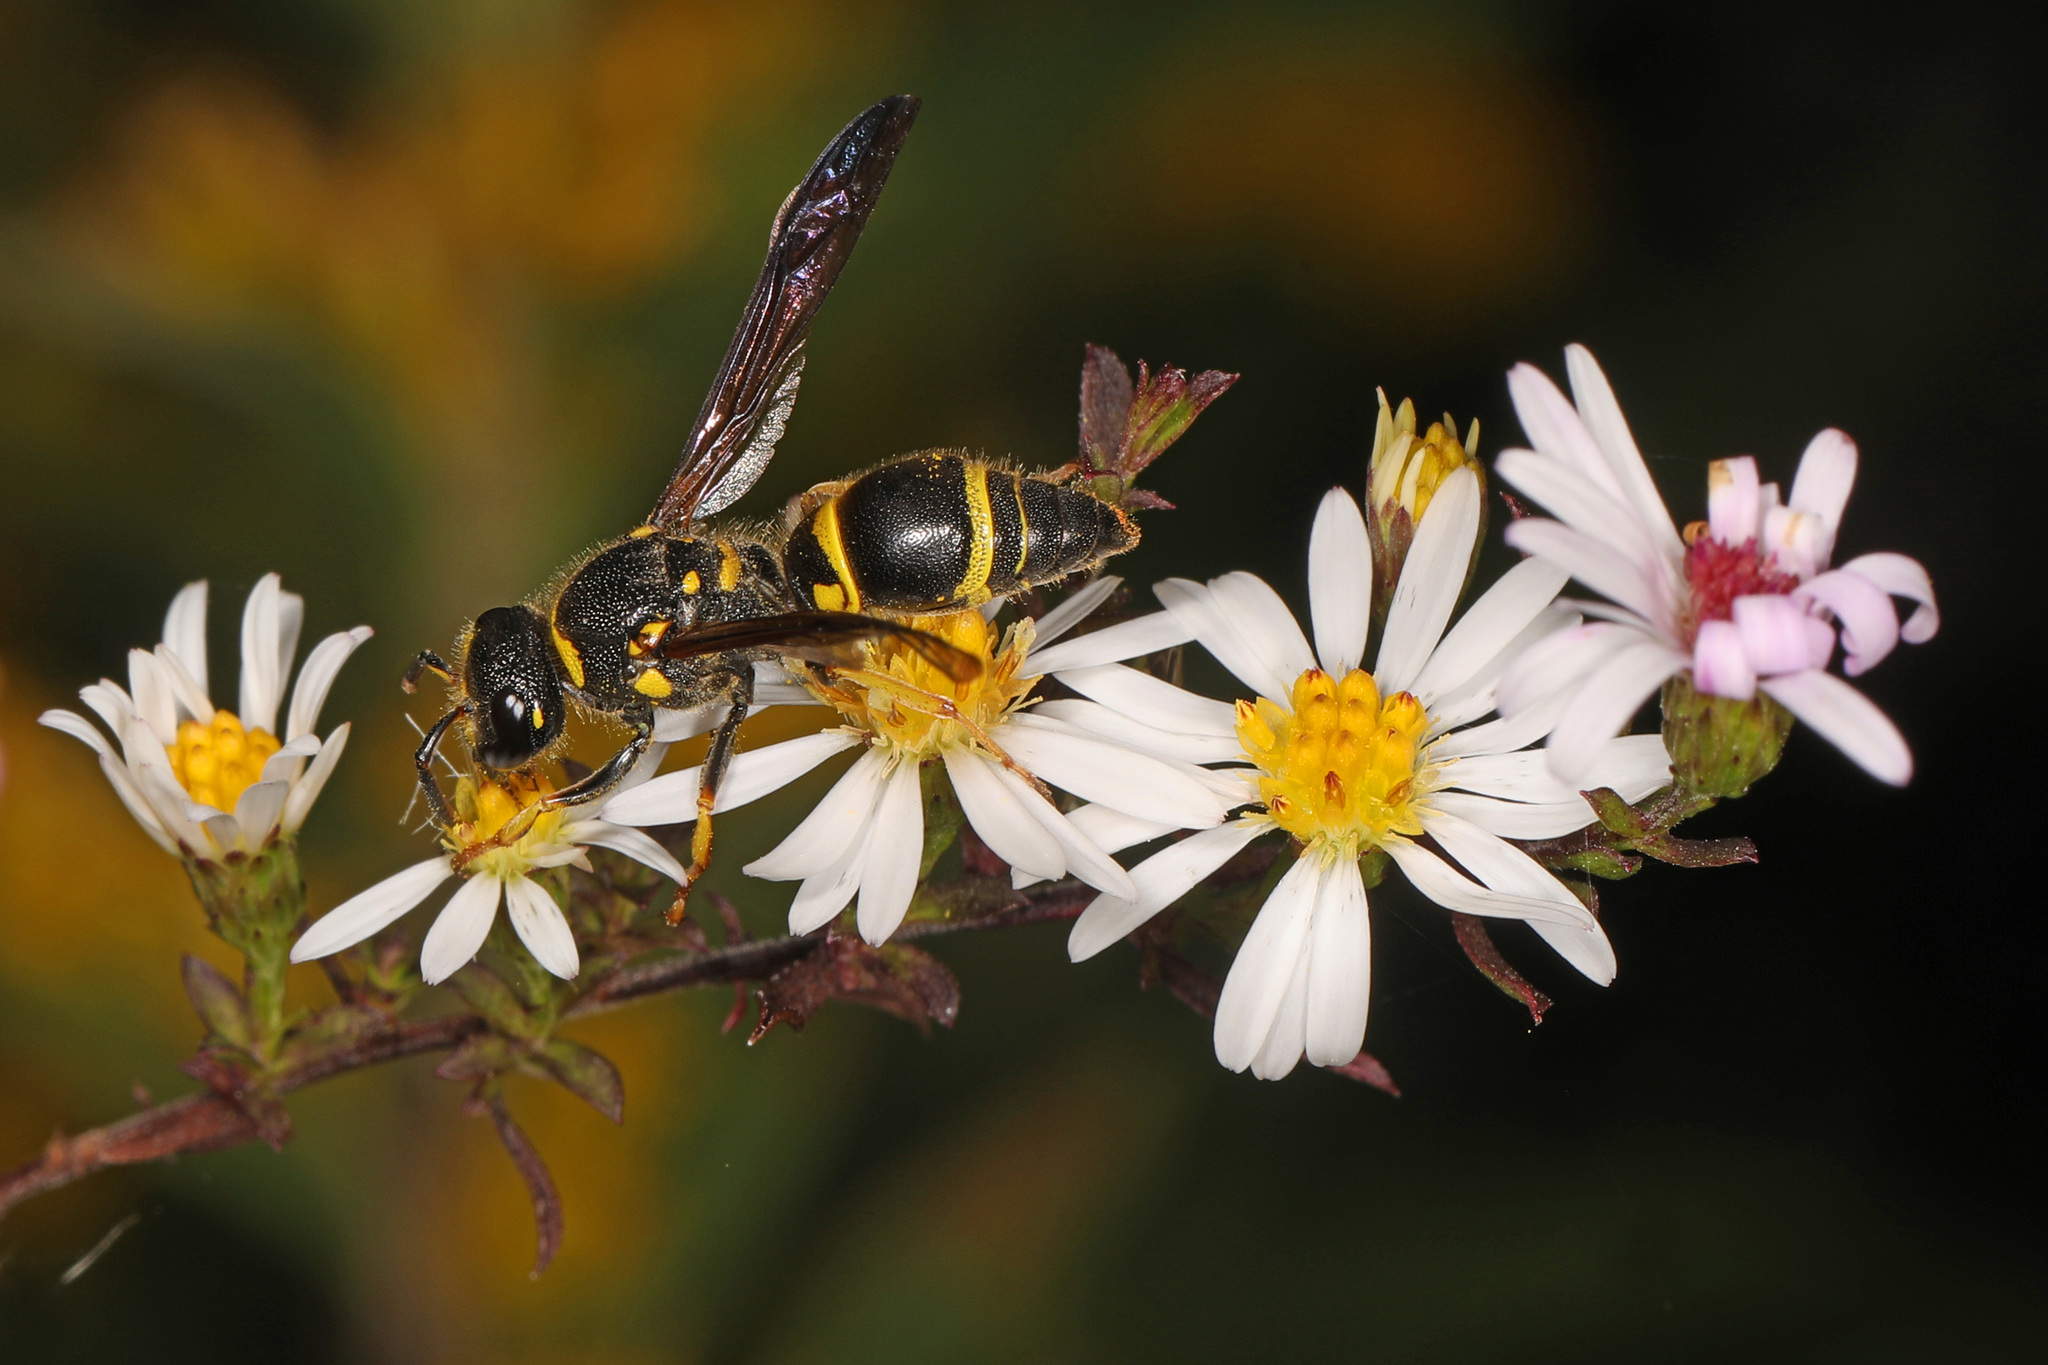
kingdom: Animalia
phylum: Arthropoda
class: Insecta
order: Hymenoptera
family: Vespidae
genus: Ancistrocerus
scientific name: Ancistrocerus campestris
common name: Smiling mason wasp
